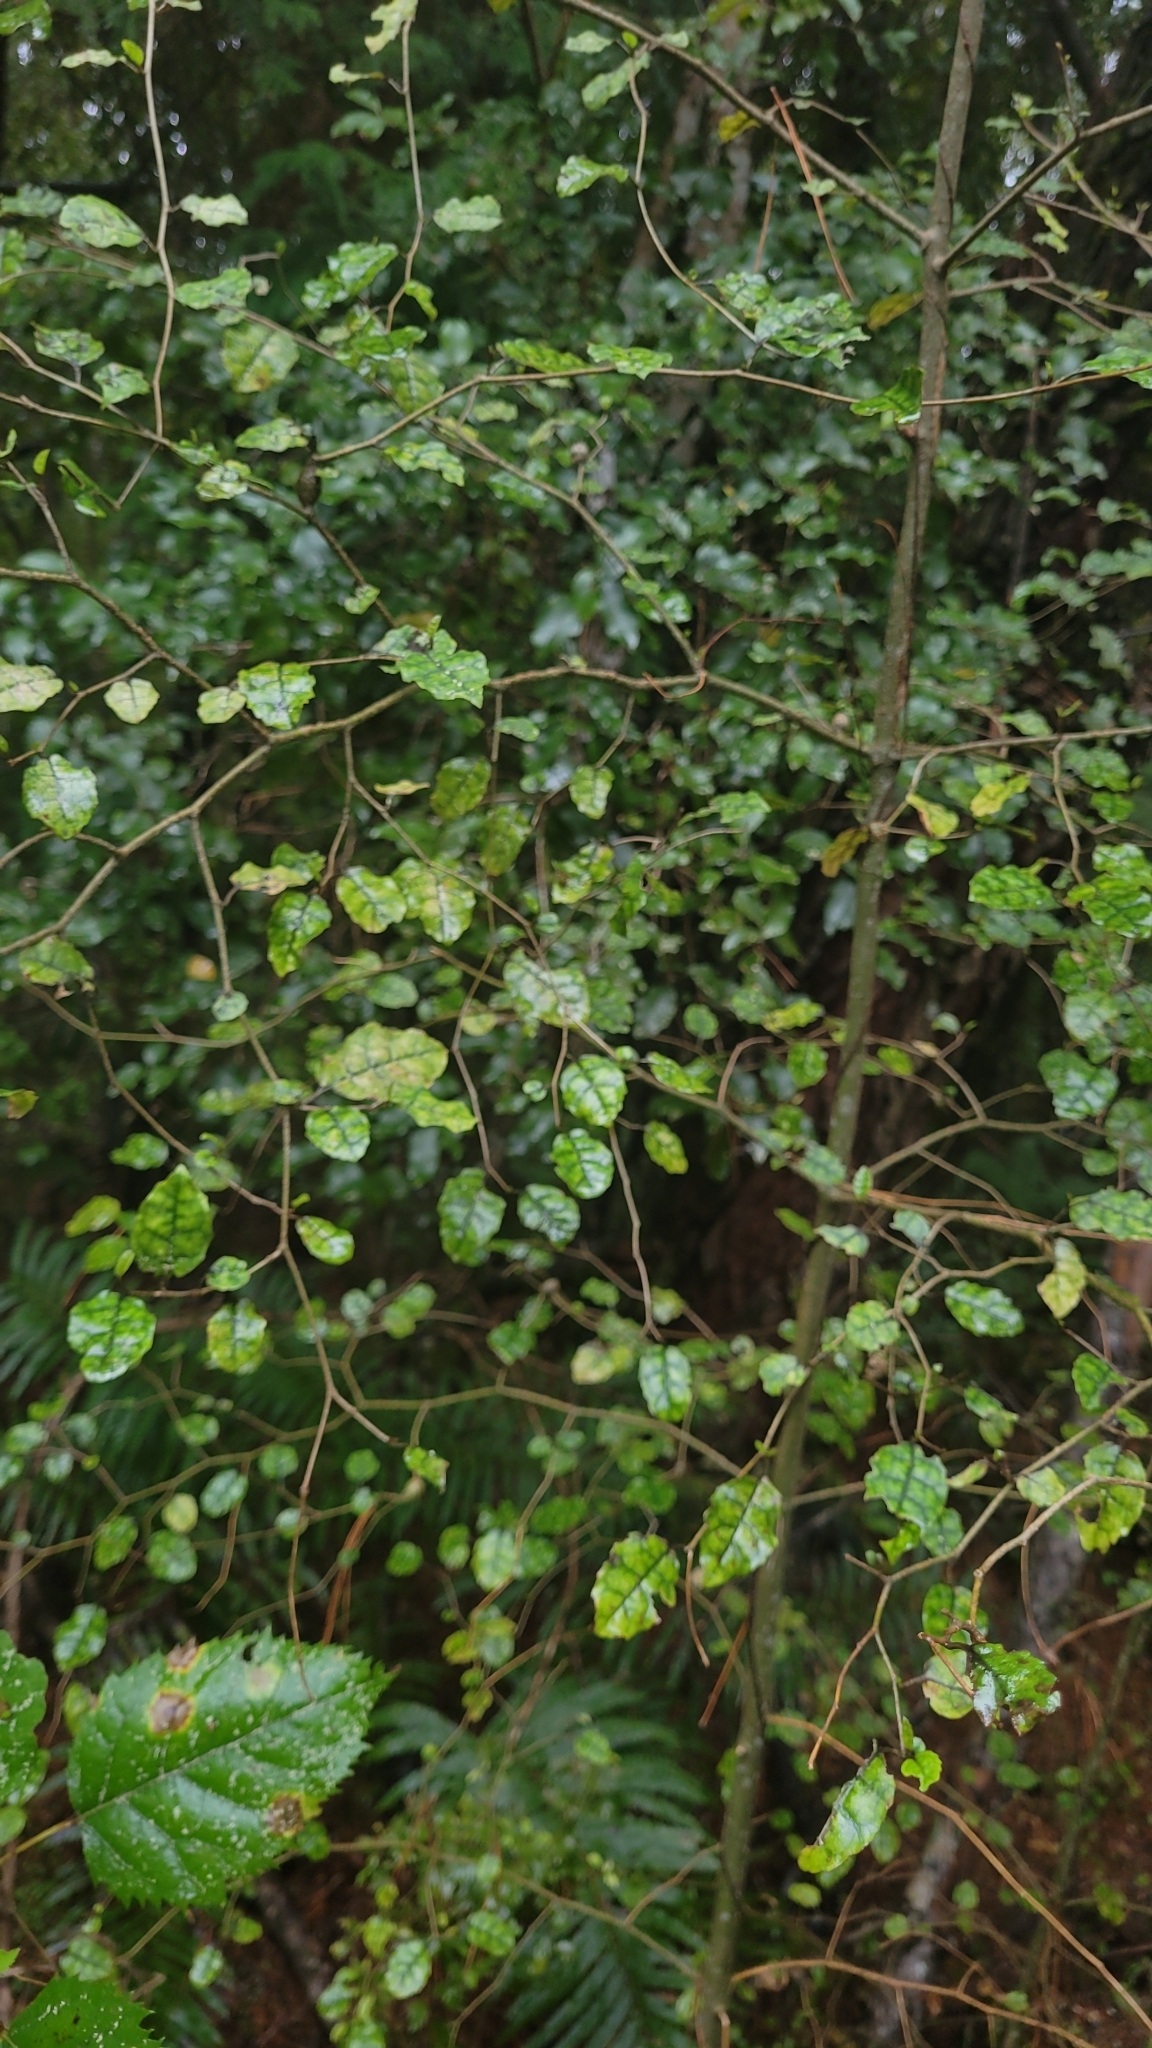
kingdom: Plantae
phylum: Tracheophyta
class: Magnoliopsida
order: Asterales
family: Rousseaceae
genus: Carpodetus
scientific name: Carpodetus serratus
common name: White mapau
